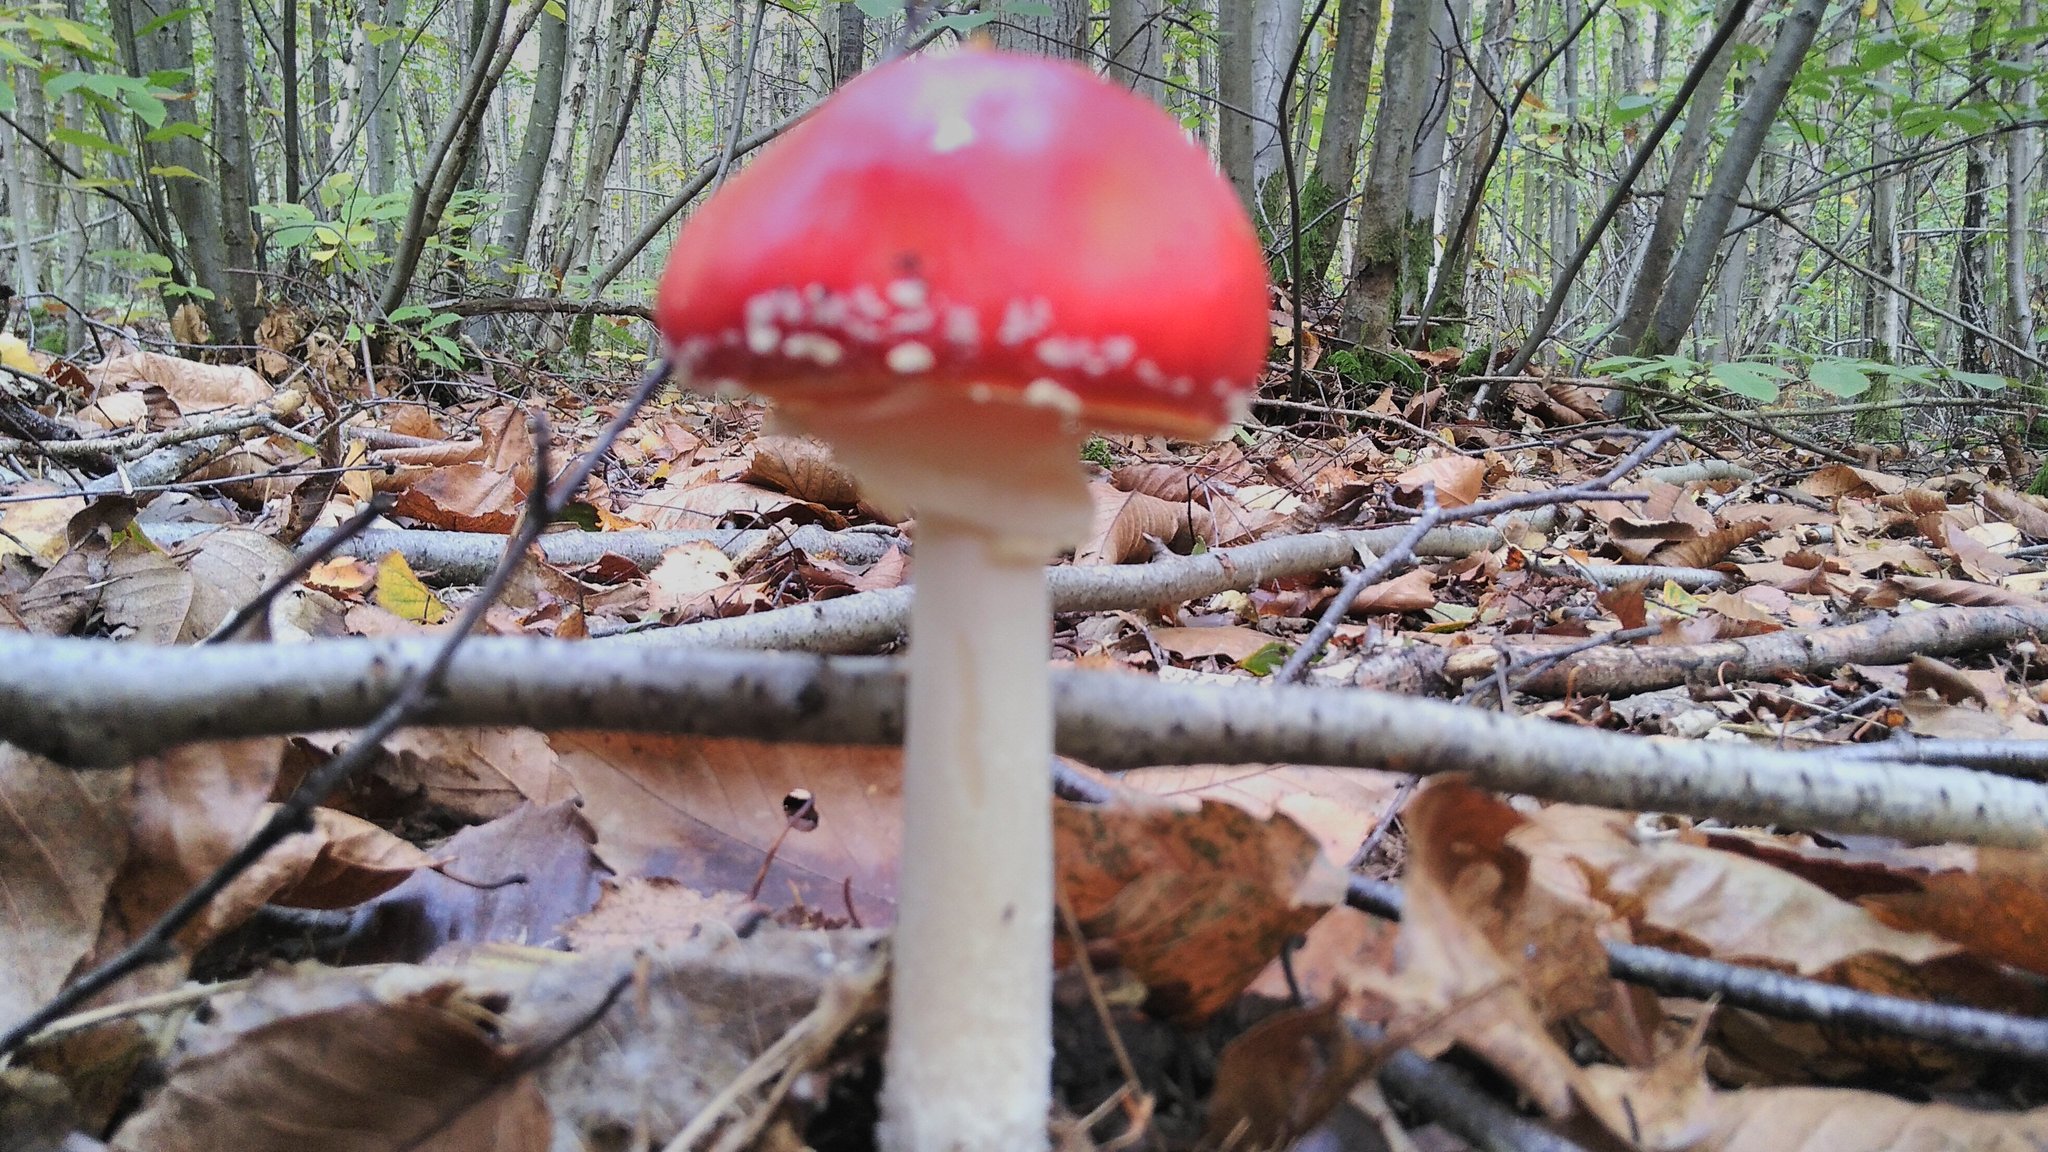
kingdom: Fungi
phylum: Basidiomycota
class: Agaricomycetes
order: Agaricales
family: Amanitaceae
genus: Amanita
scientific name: Amanita muscaria
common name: Fly agaric
